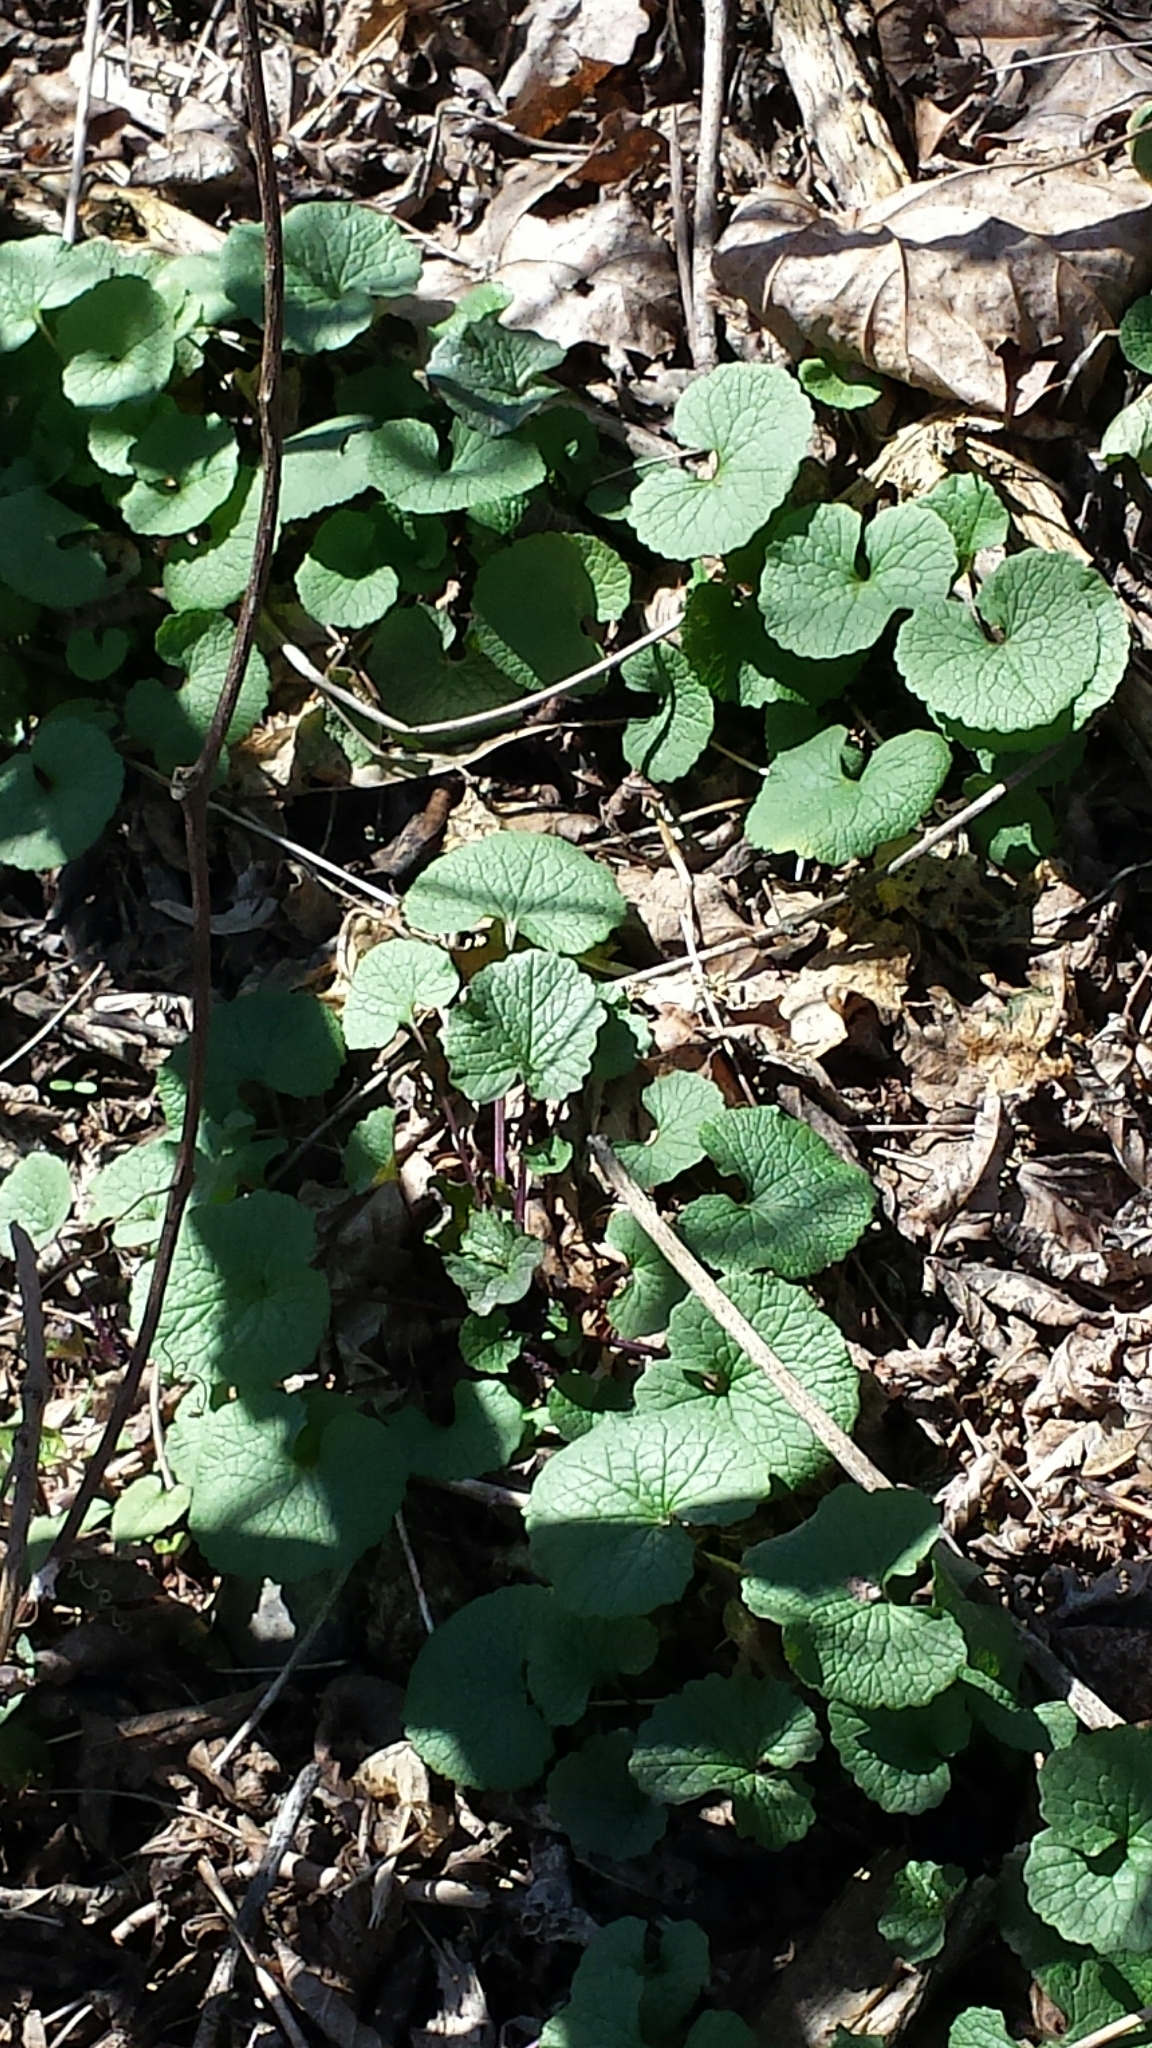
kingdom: Plantae
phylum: Tracheophyta
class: Magnoliopsida
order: Brassicales
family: Brassicaceae
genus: Alliaria
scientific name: Alliaria petiolata
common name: Garlic mustard
